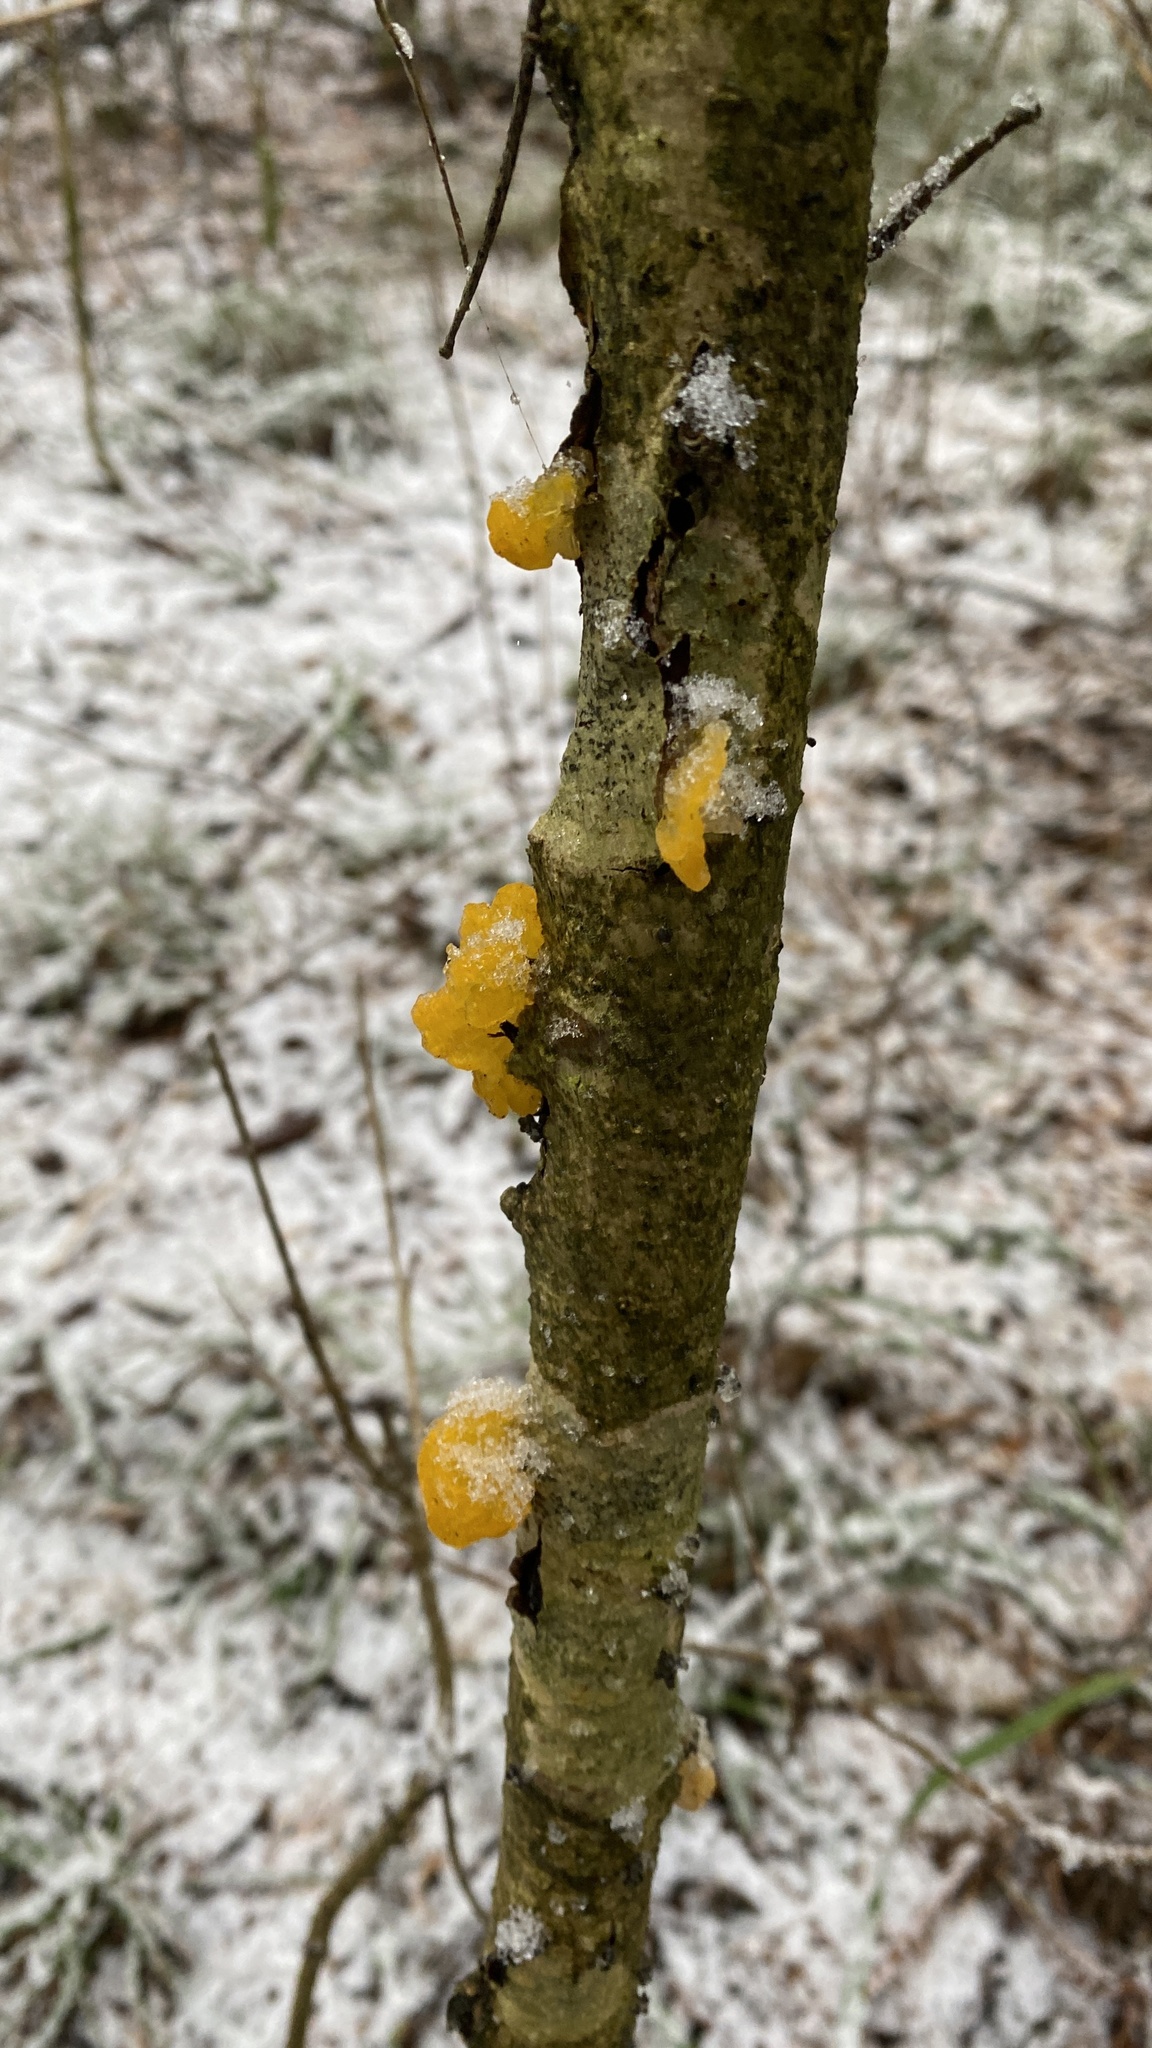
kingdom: Fungi
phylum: Basidiomycota
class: Tremellomycetes
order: Tremellales
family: Tremellaceae
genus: Tremella
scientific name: Tremella mesenterica
